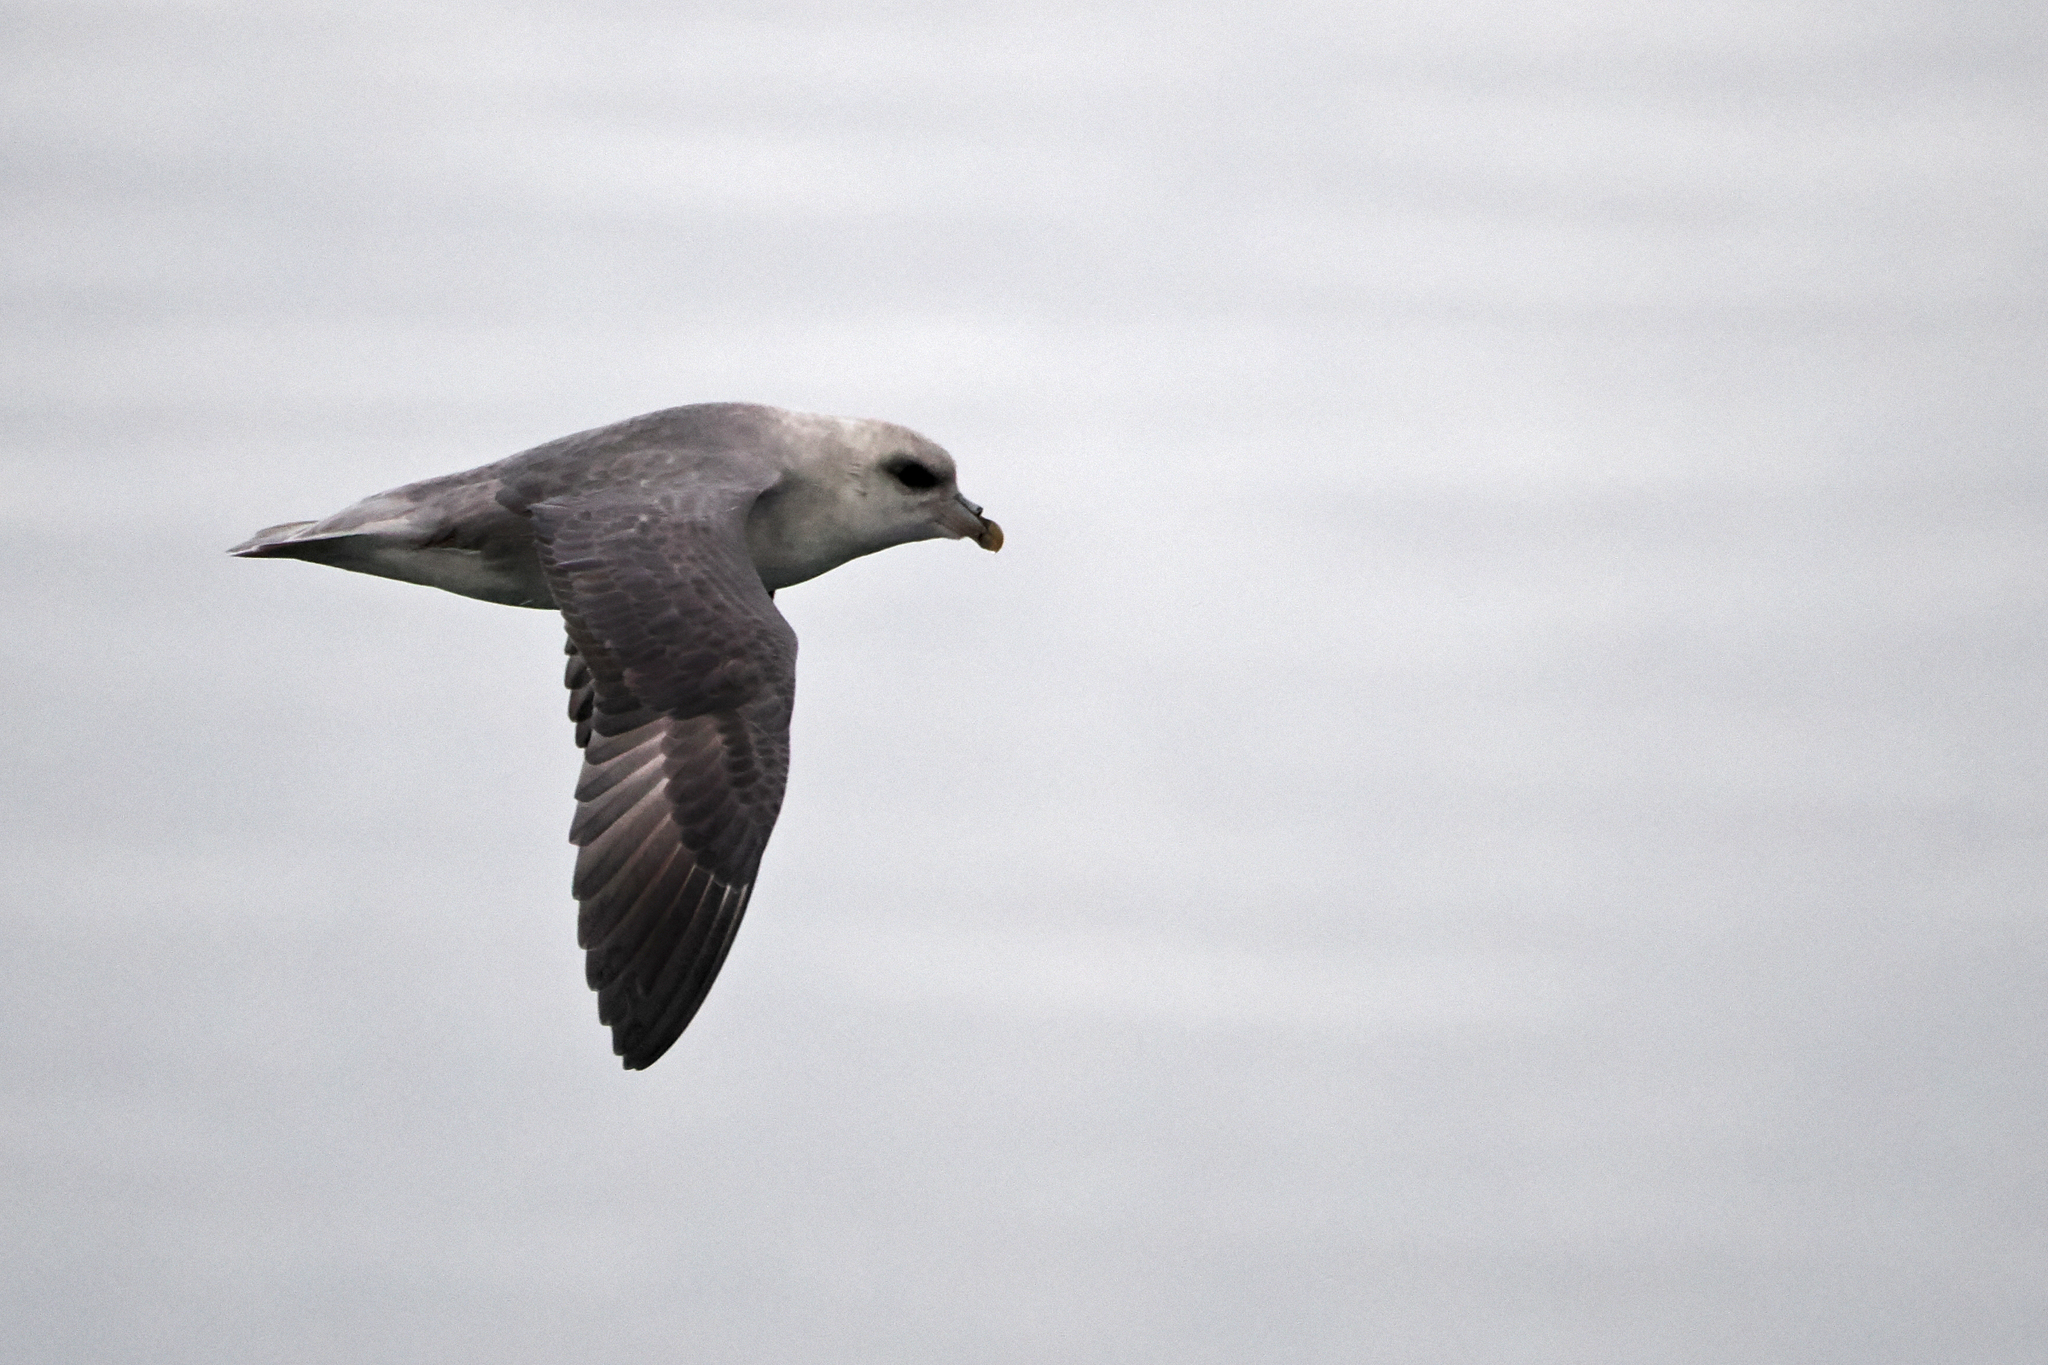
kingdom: Animalia
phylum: Chordata
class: Aves
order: Procellariiformes
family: Procellariidae
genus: Fulmarus
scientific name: Fulmarus glacialis
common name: Northern fulmar
